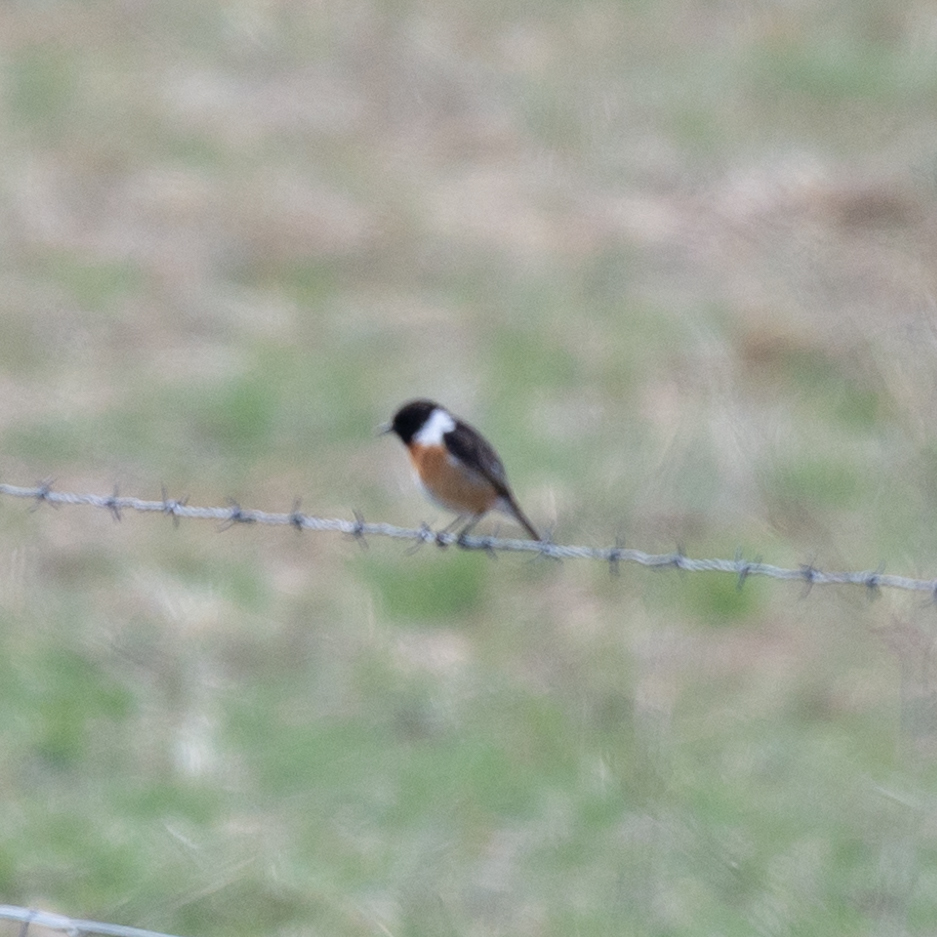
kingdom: Animalia
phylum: Chordata
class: Aves
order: Passeriformes
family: Muscicapidae
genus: Saxicola
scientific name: Saxicola rubicola
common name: European stonechat
